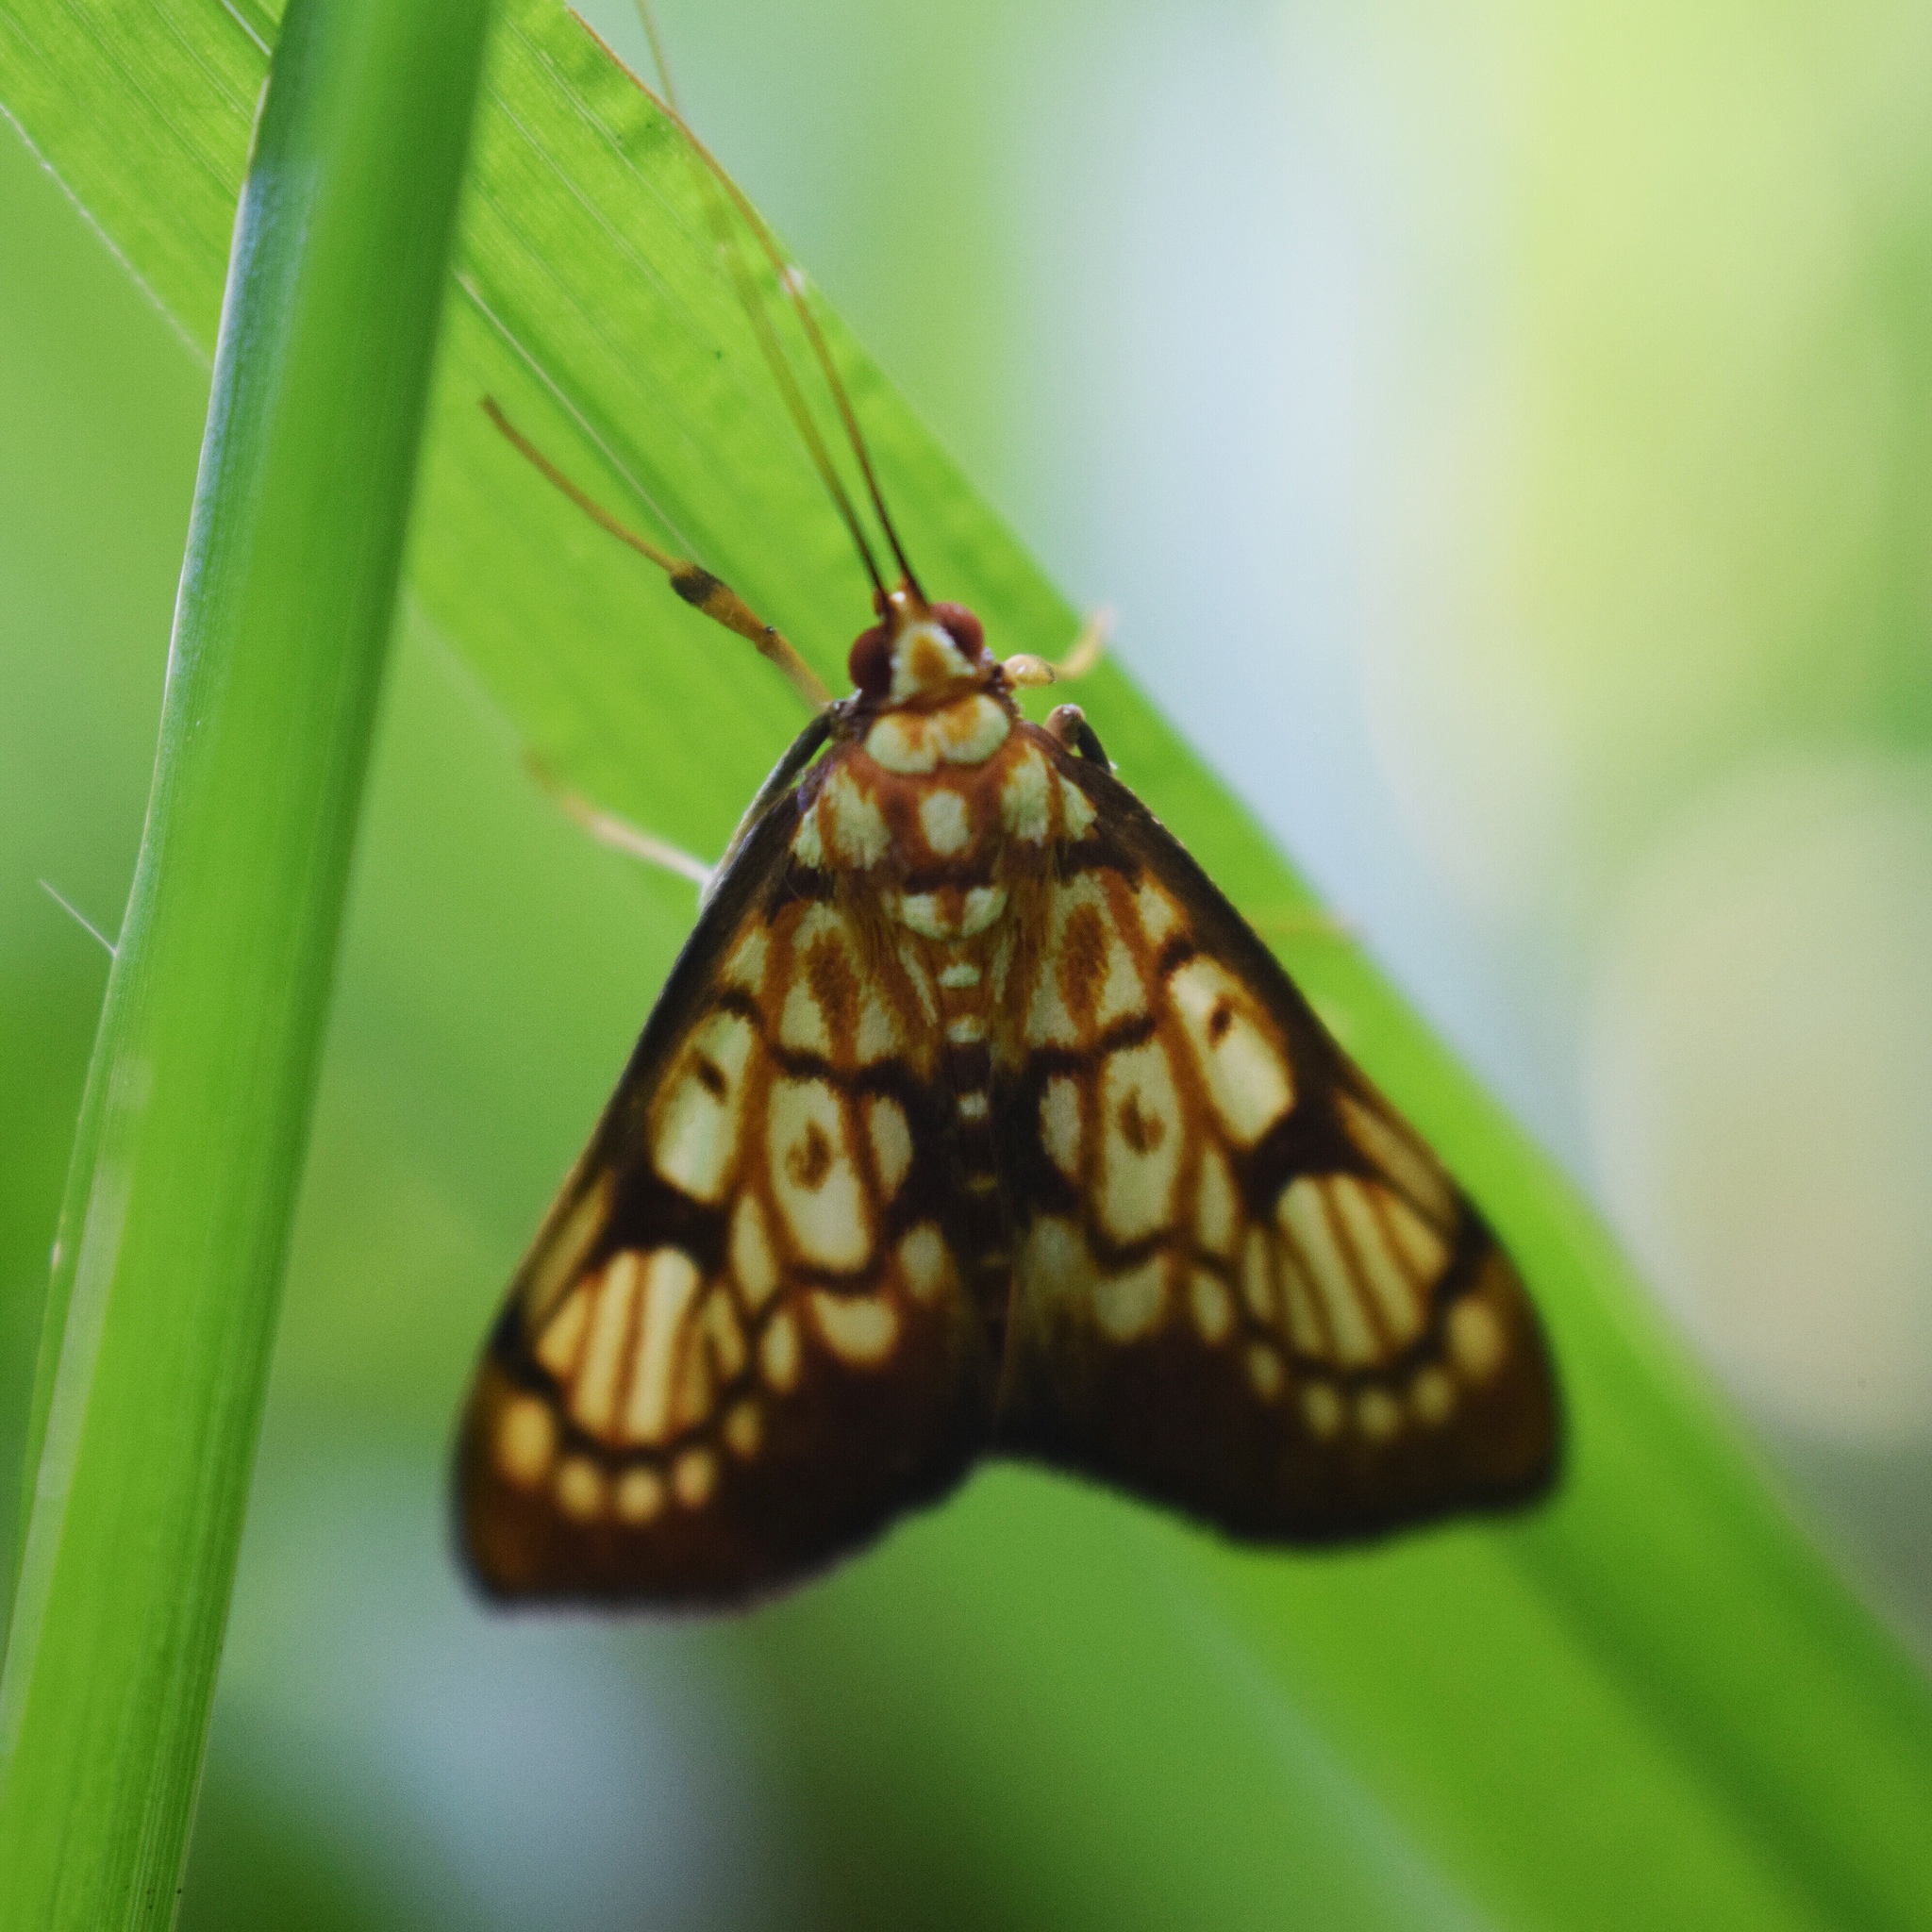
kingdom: Animalia
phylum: Arthropoda
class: Insecta
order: Lepidoptera
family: Crambidae
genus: Chalcidoptera
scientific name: Chalcidoptera rufilinealis
